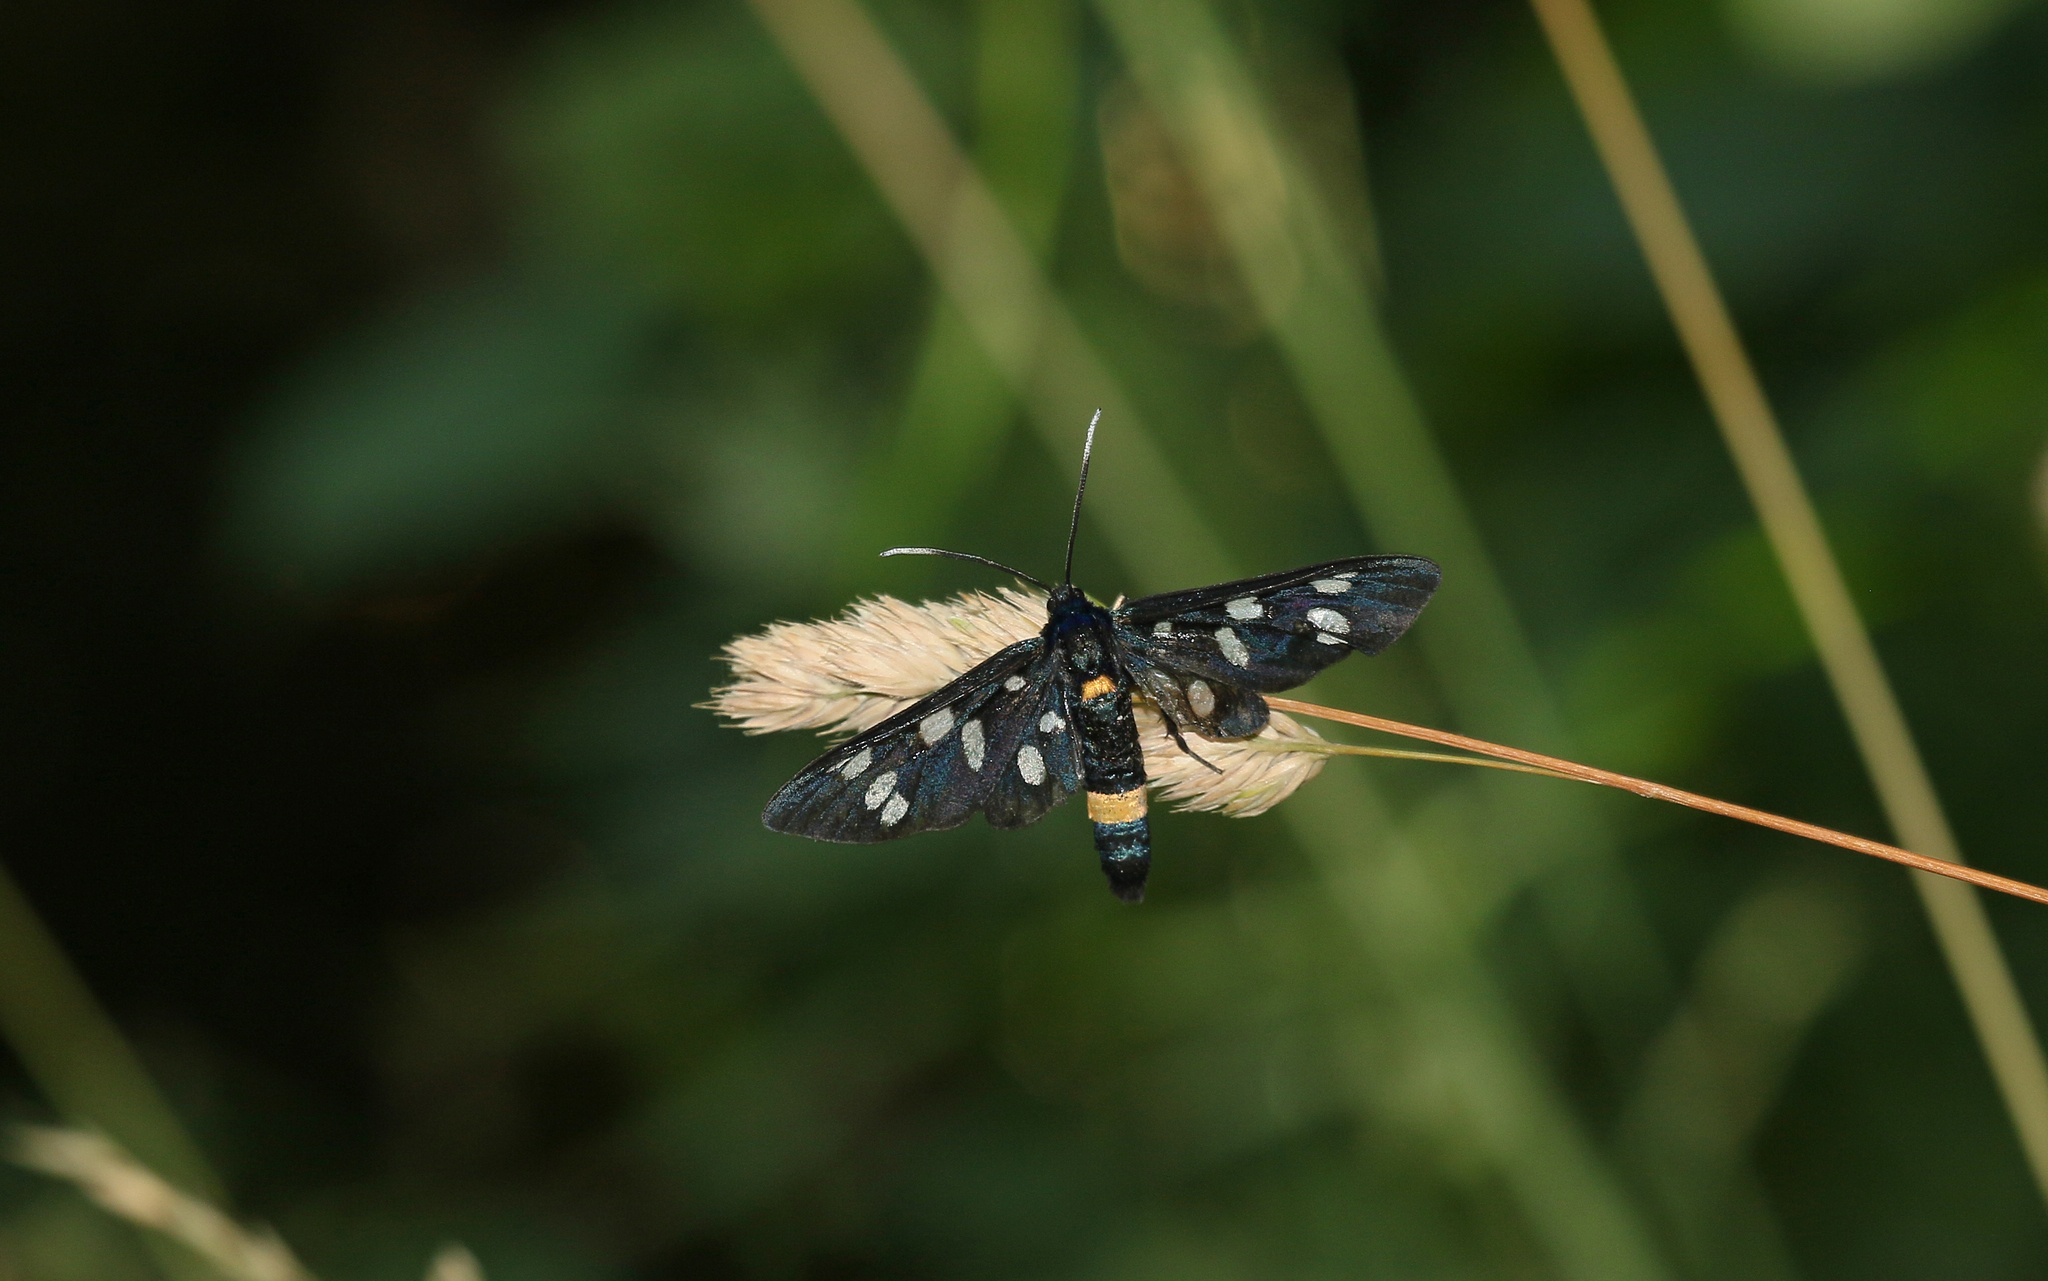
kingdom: Animalia
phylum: Arthropoda
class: Insecta
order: Lepidoptera
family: Erebidae
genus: Amata
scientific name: Amata phegea
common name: Nine-spotted
